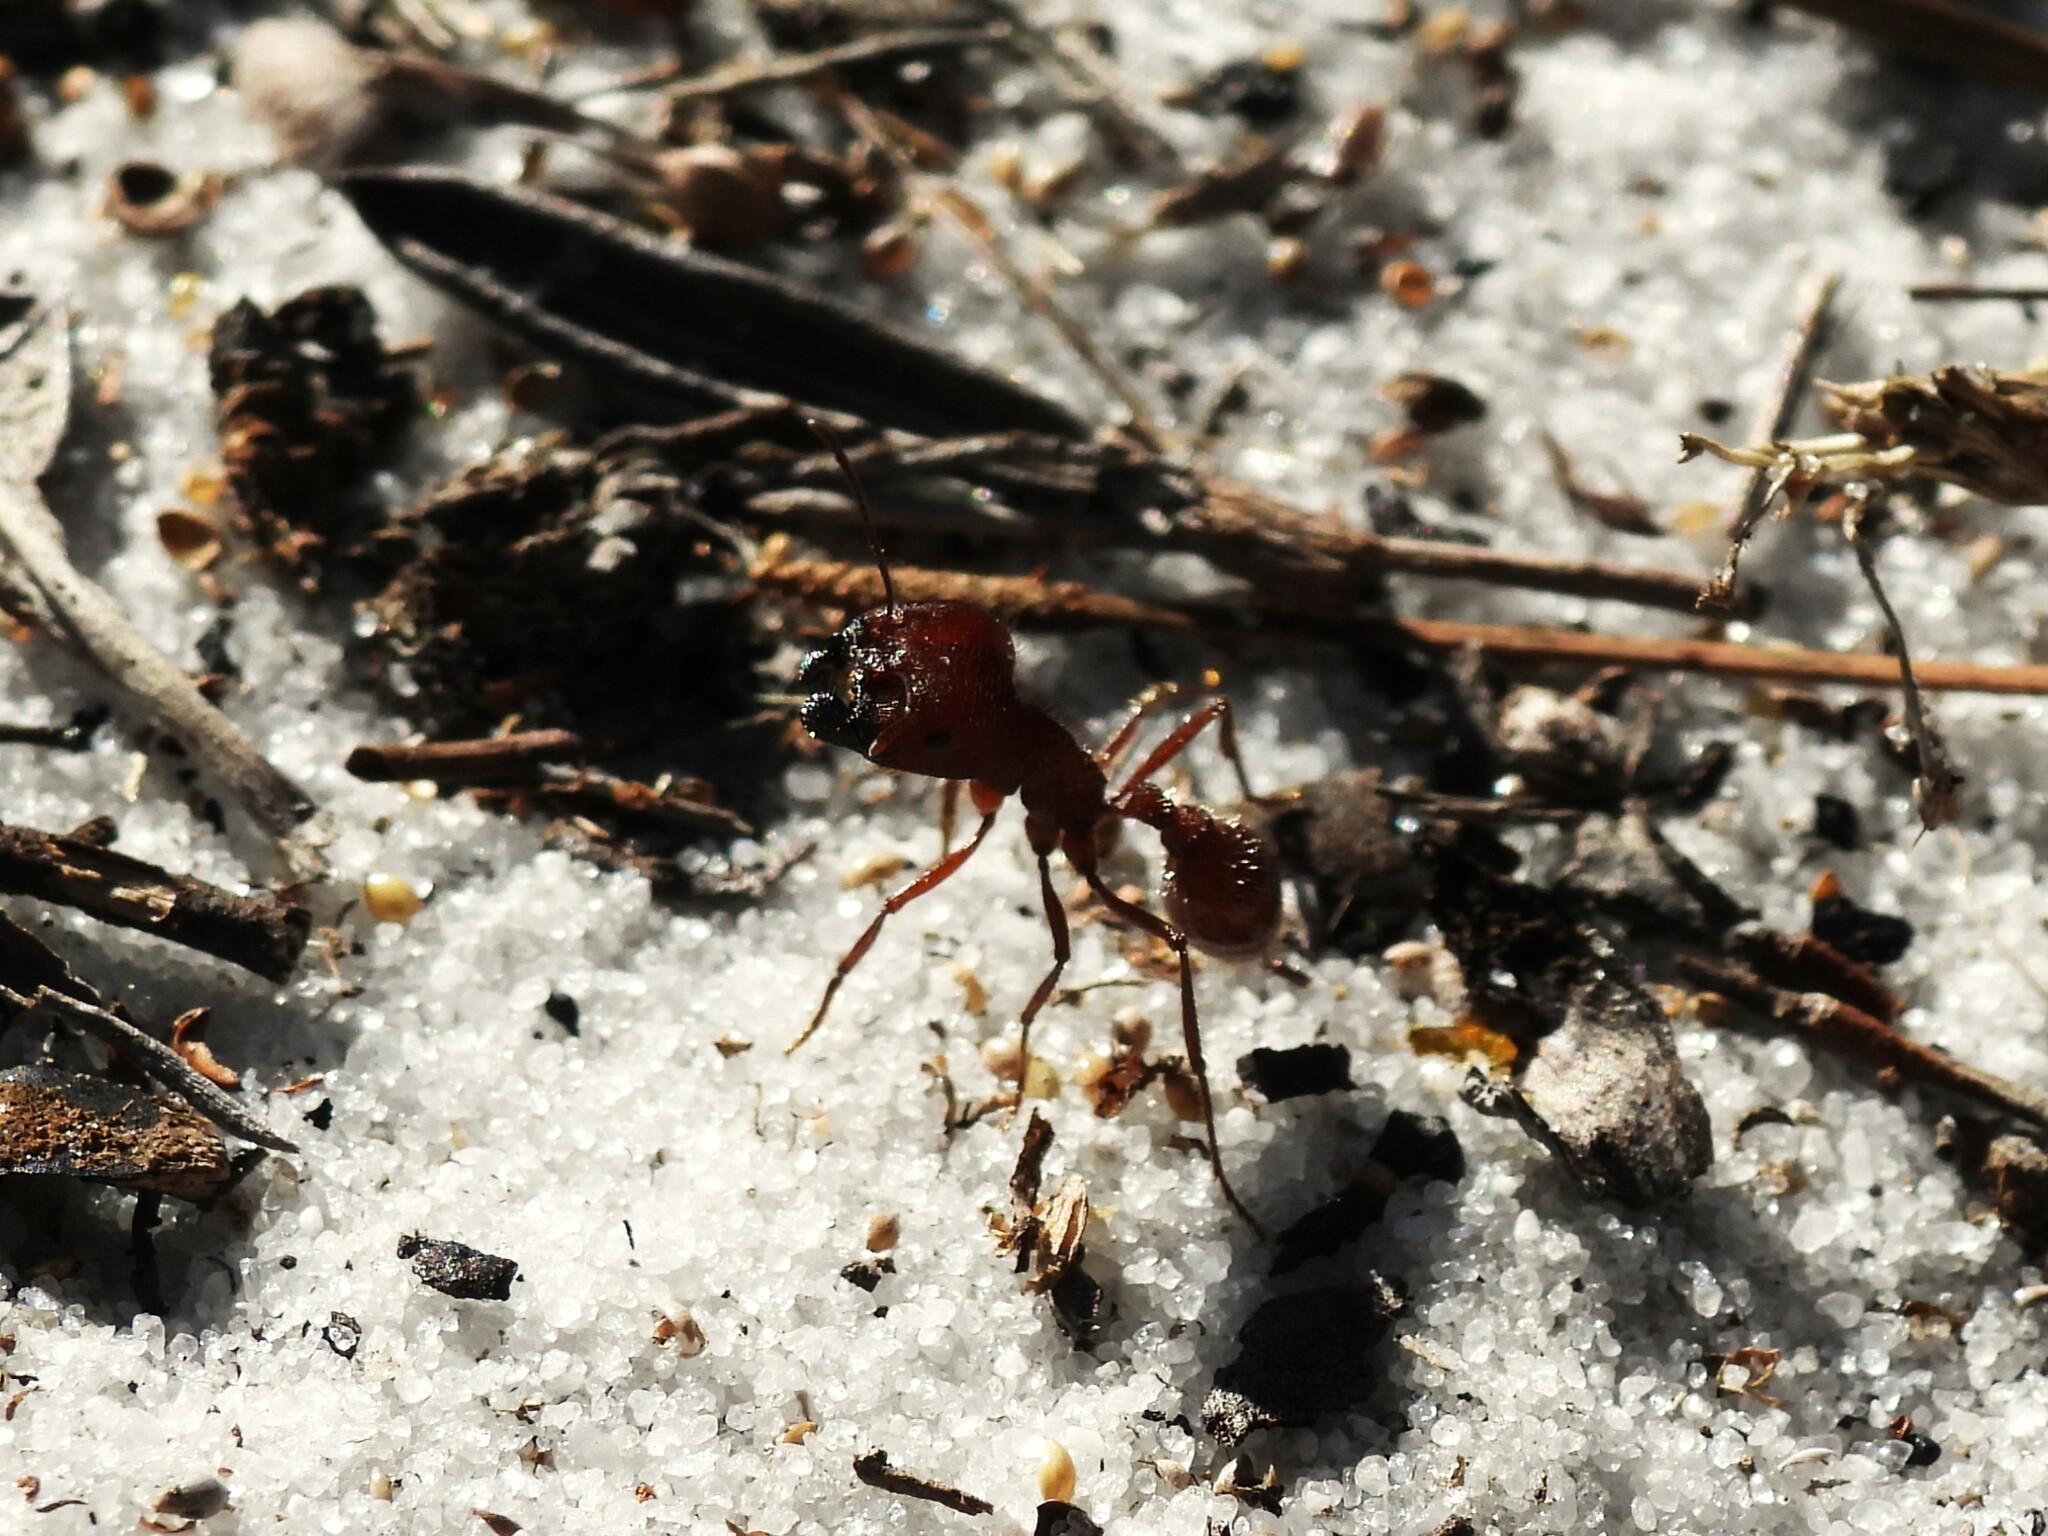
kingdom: Animalia
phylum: Arthropoda
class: Insecta
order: Hymenoptera
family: Formicidae
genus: Pogonomyrmex
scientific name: Pogonomyrmex badius
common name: Florida harvester ant
